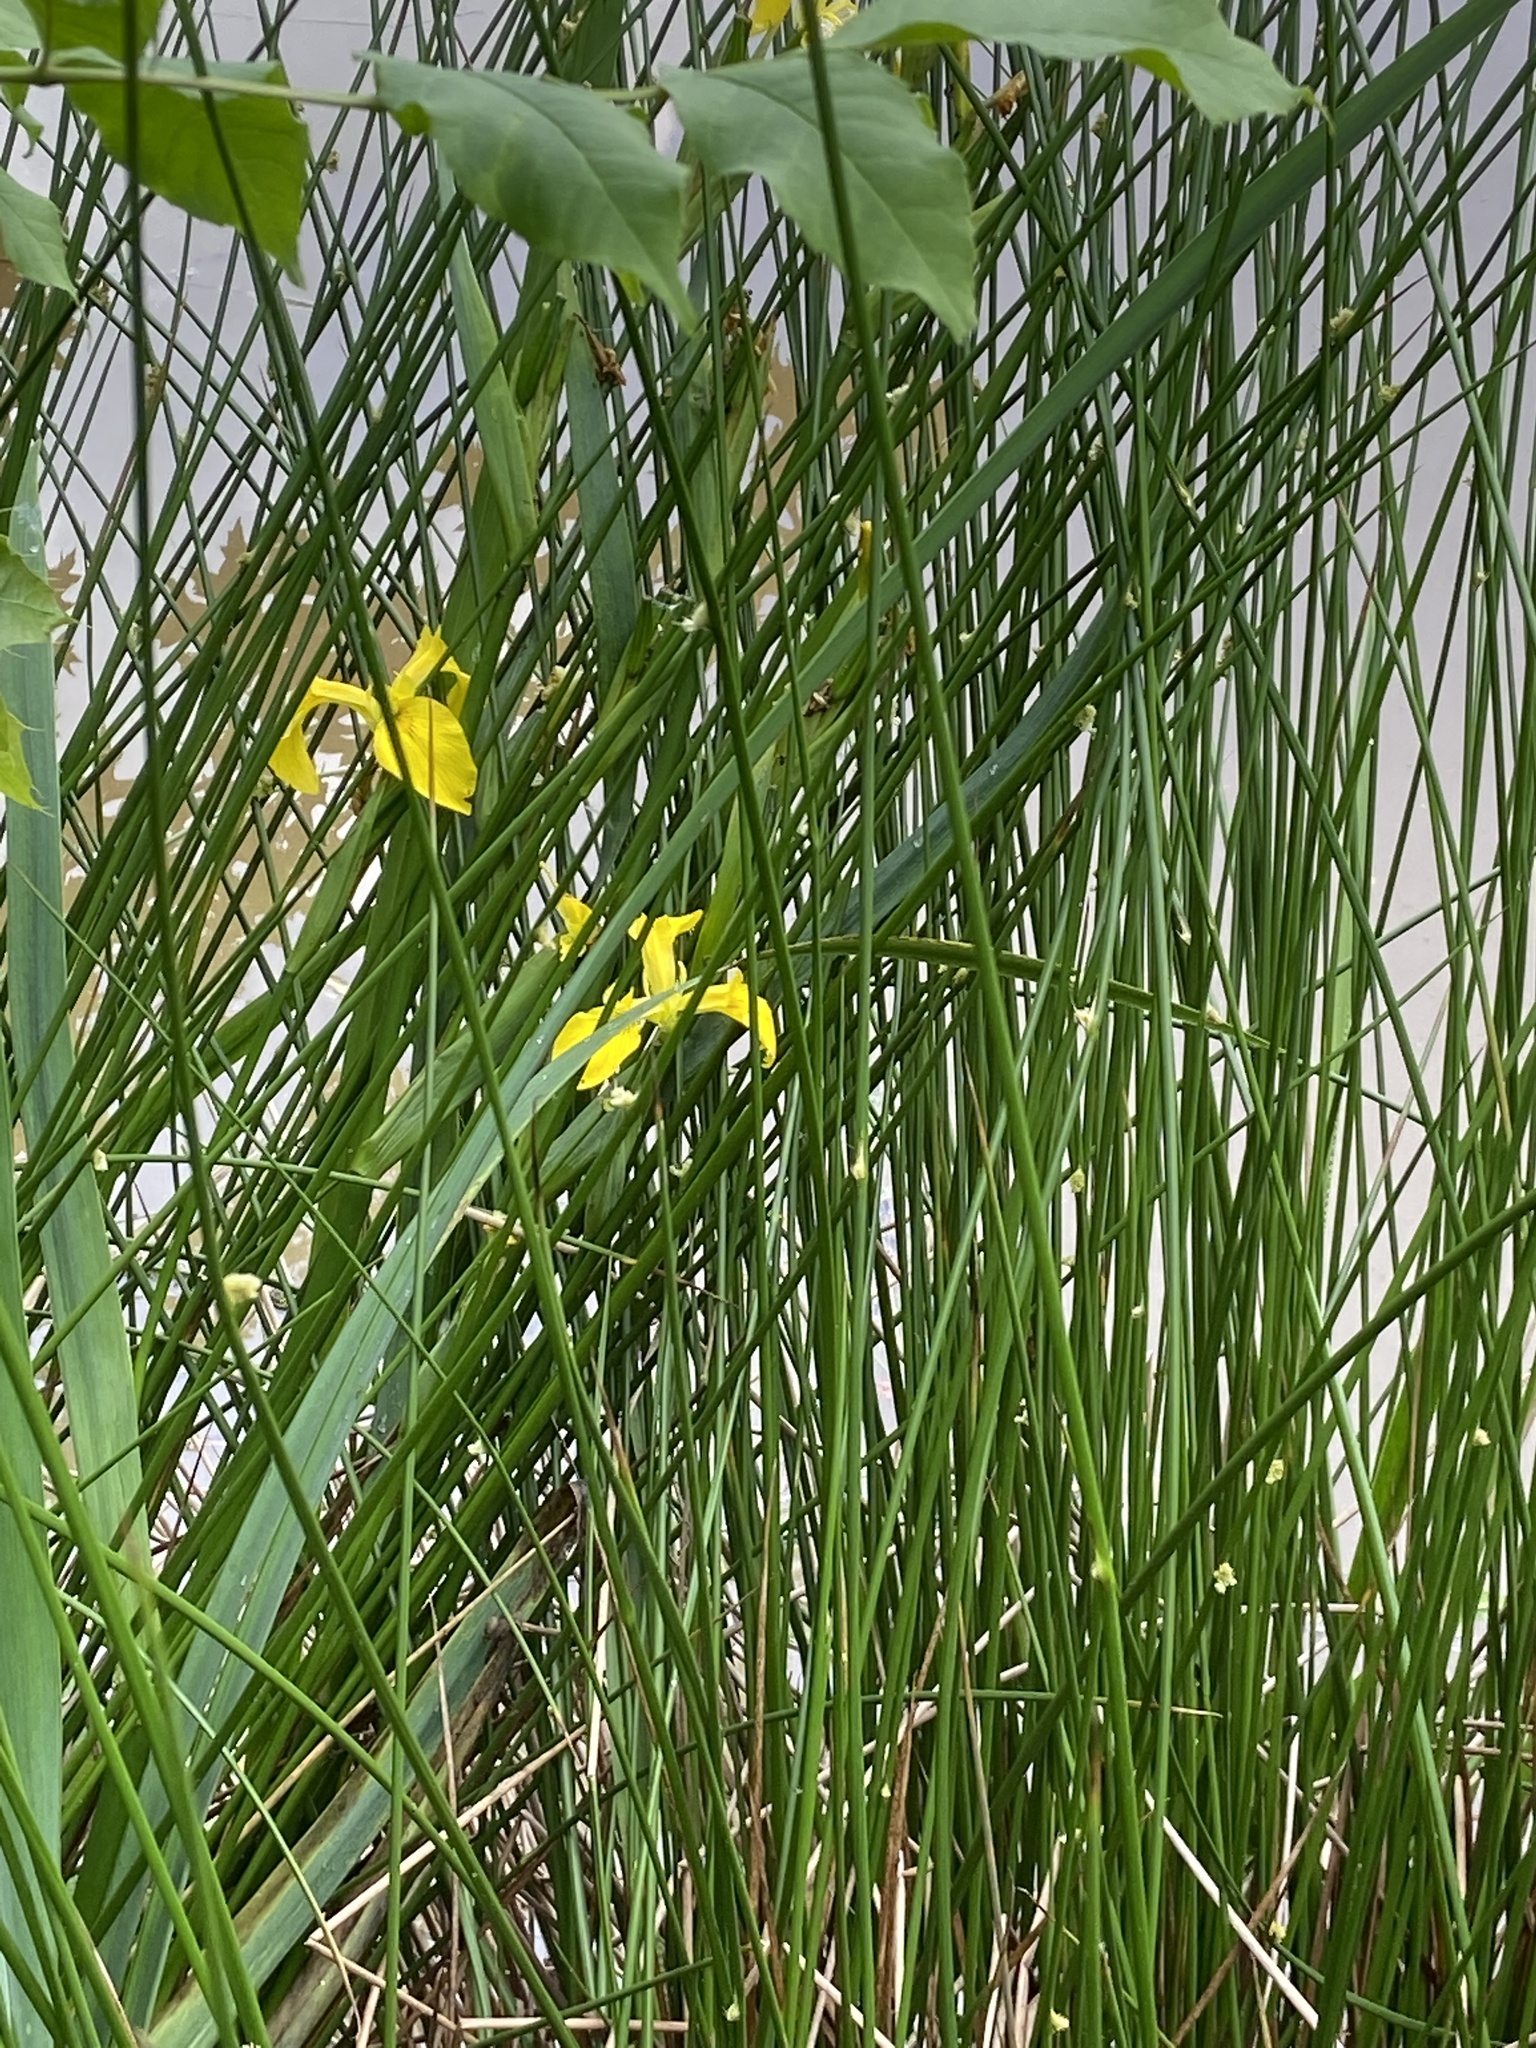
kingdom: Plantae
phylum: Tracheophyta
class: Liliopsida
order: Asparagales
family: Iridaceae
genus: Iris
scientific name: Iris pseudacorus
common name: Yellow flag
